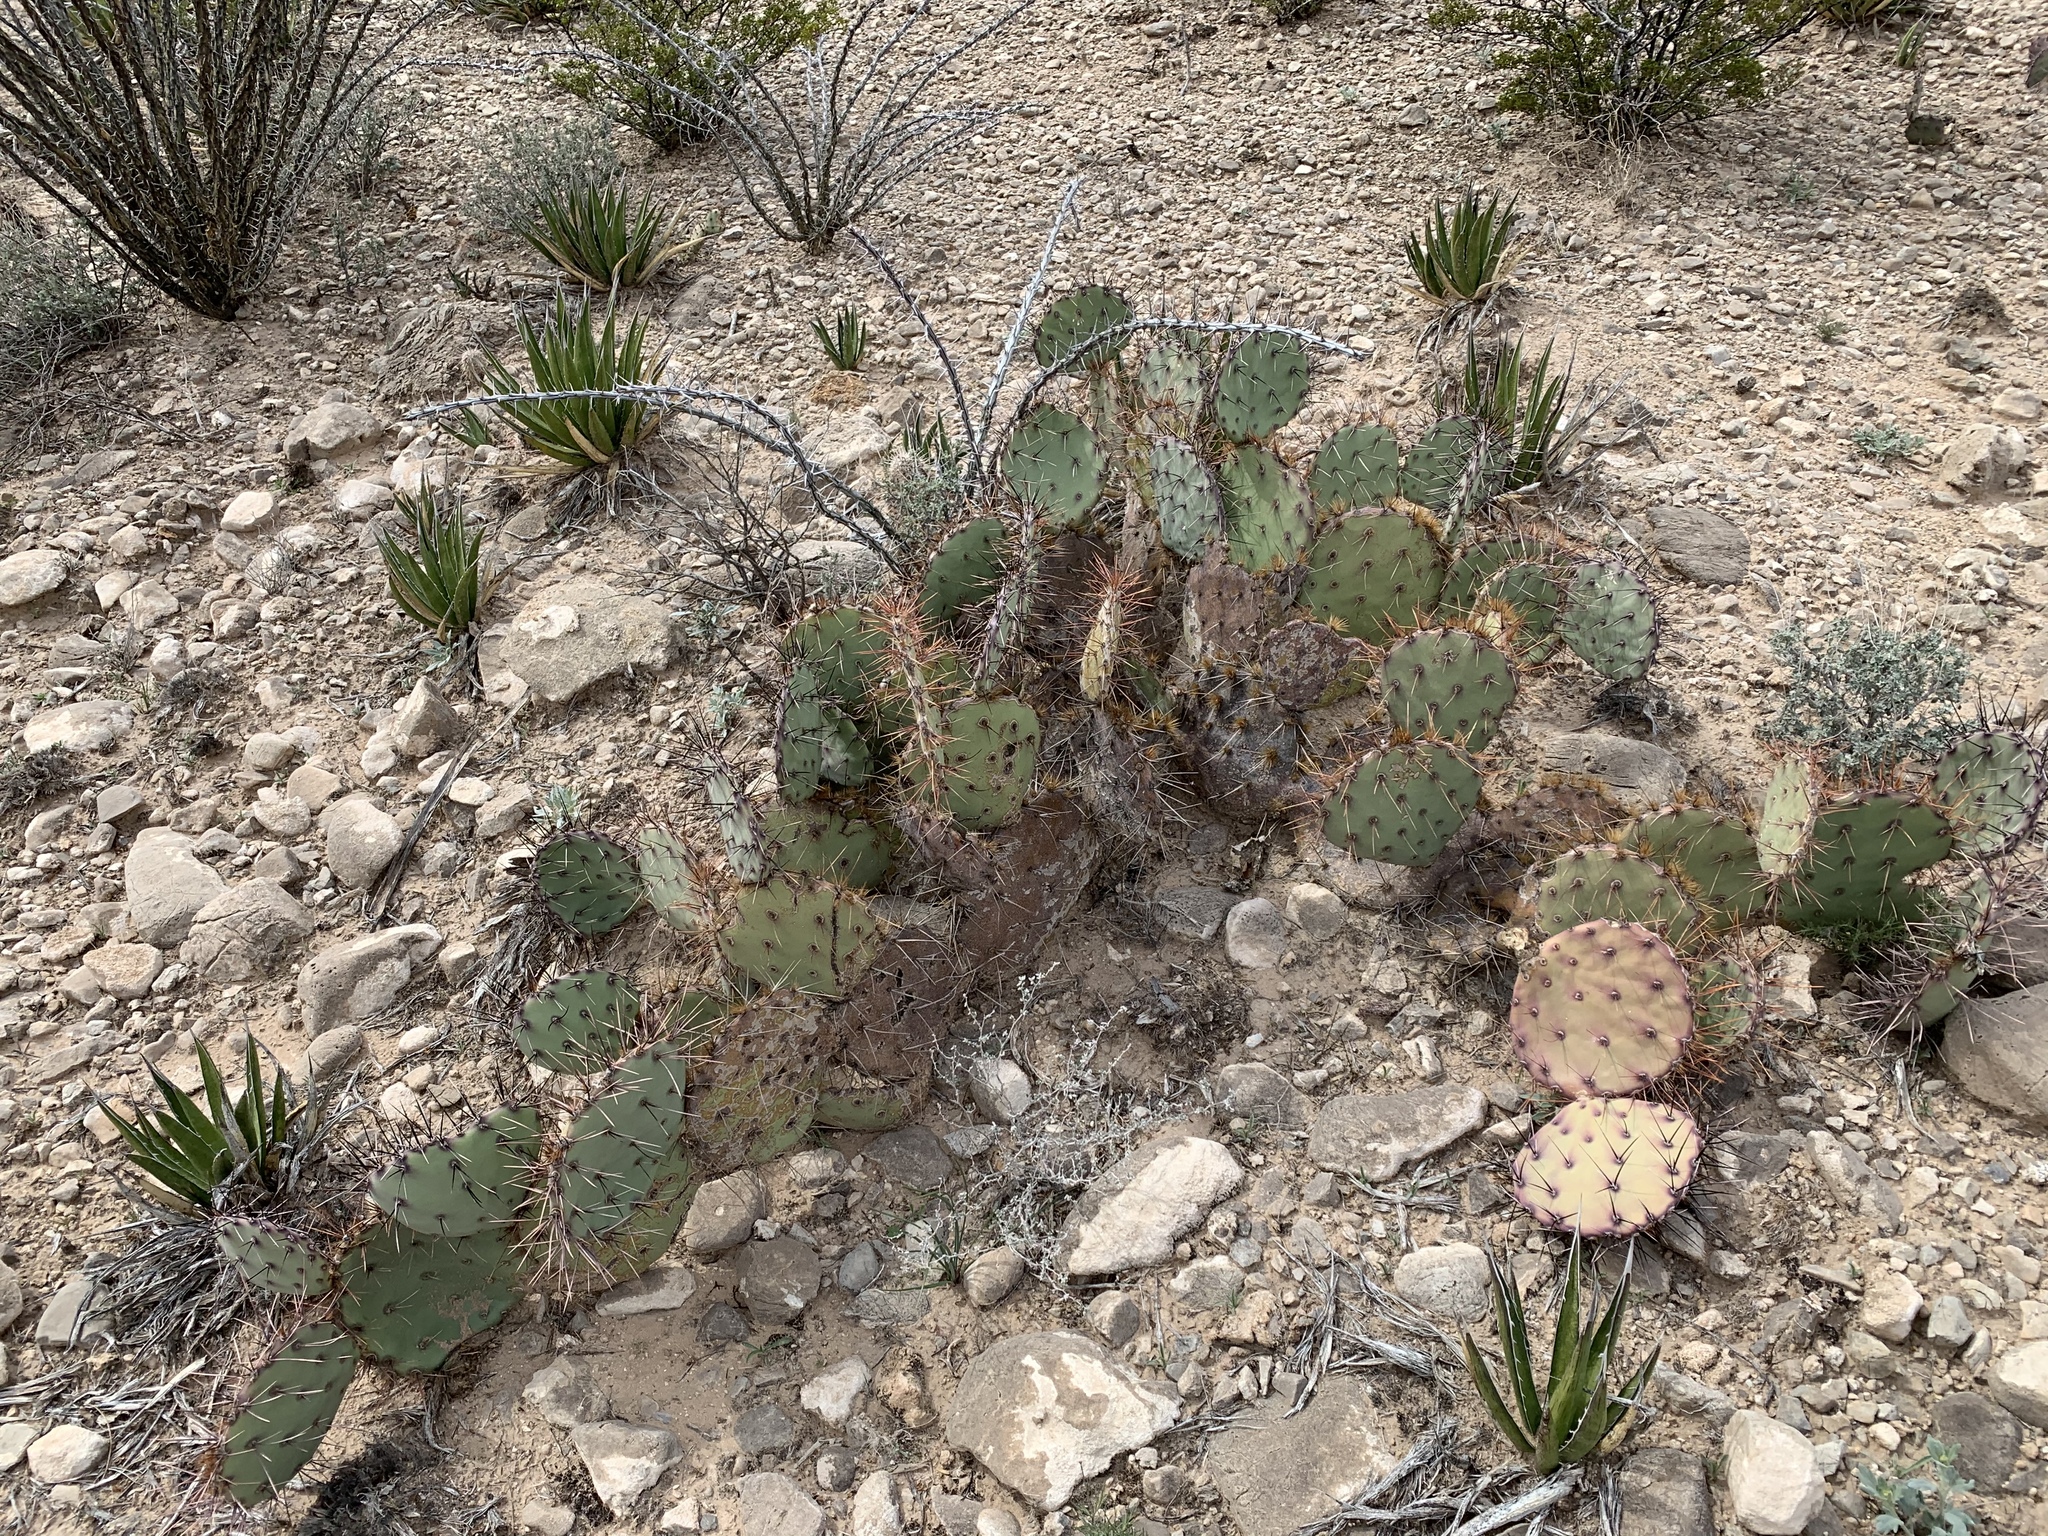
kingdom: Plantae
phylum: Tracheophyta
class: Magnoliopsida
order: Caryophyllales
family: Cactaceae
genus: Opuntia
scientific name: Opuntia phaeacantha
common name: New mexico prickly-pear
